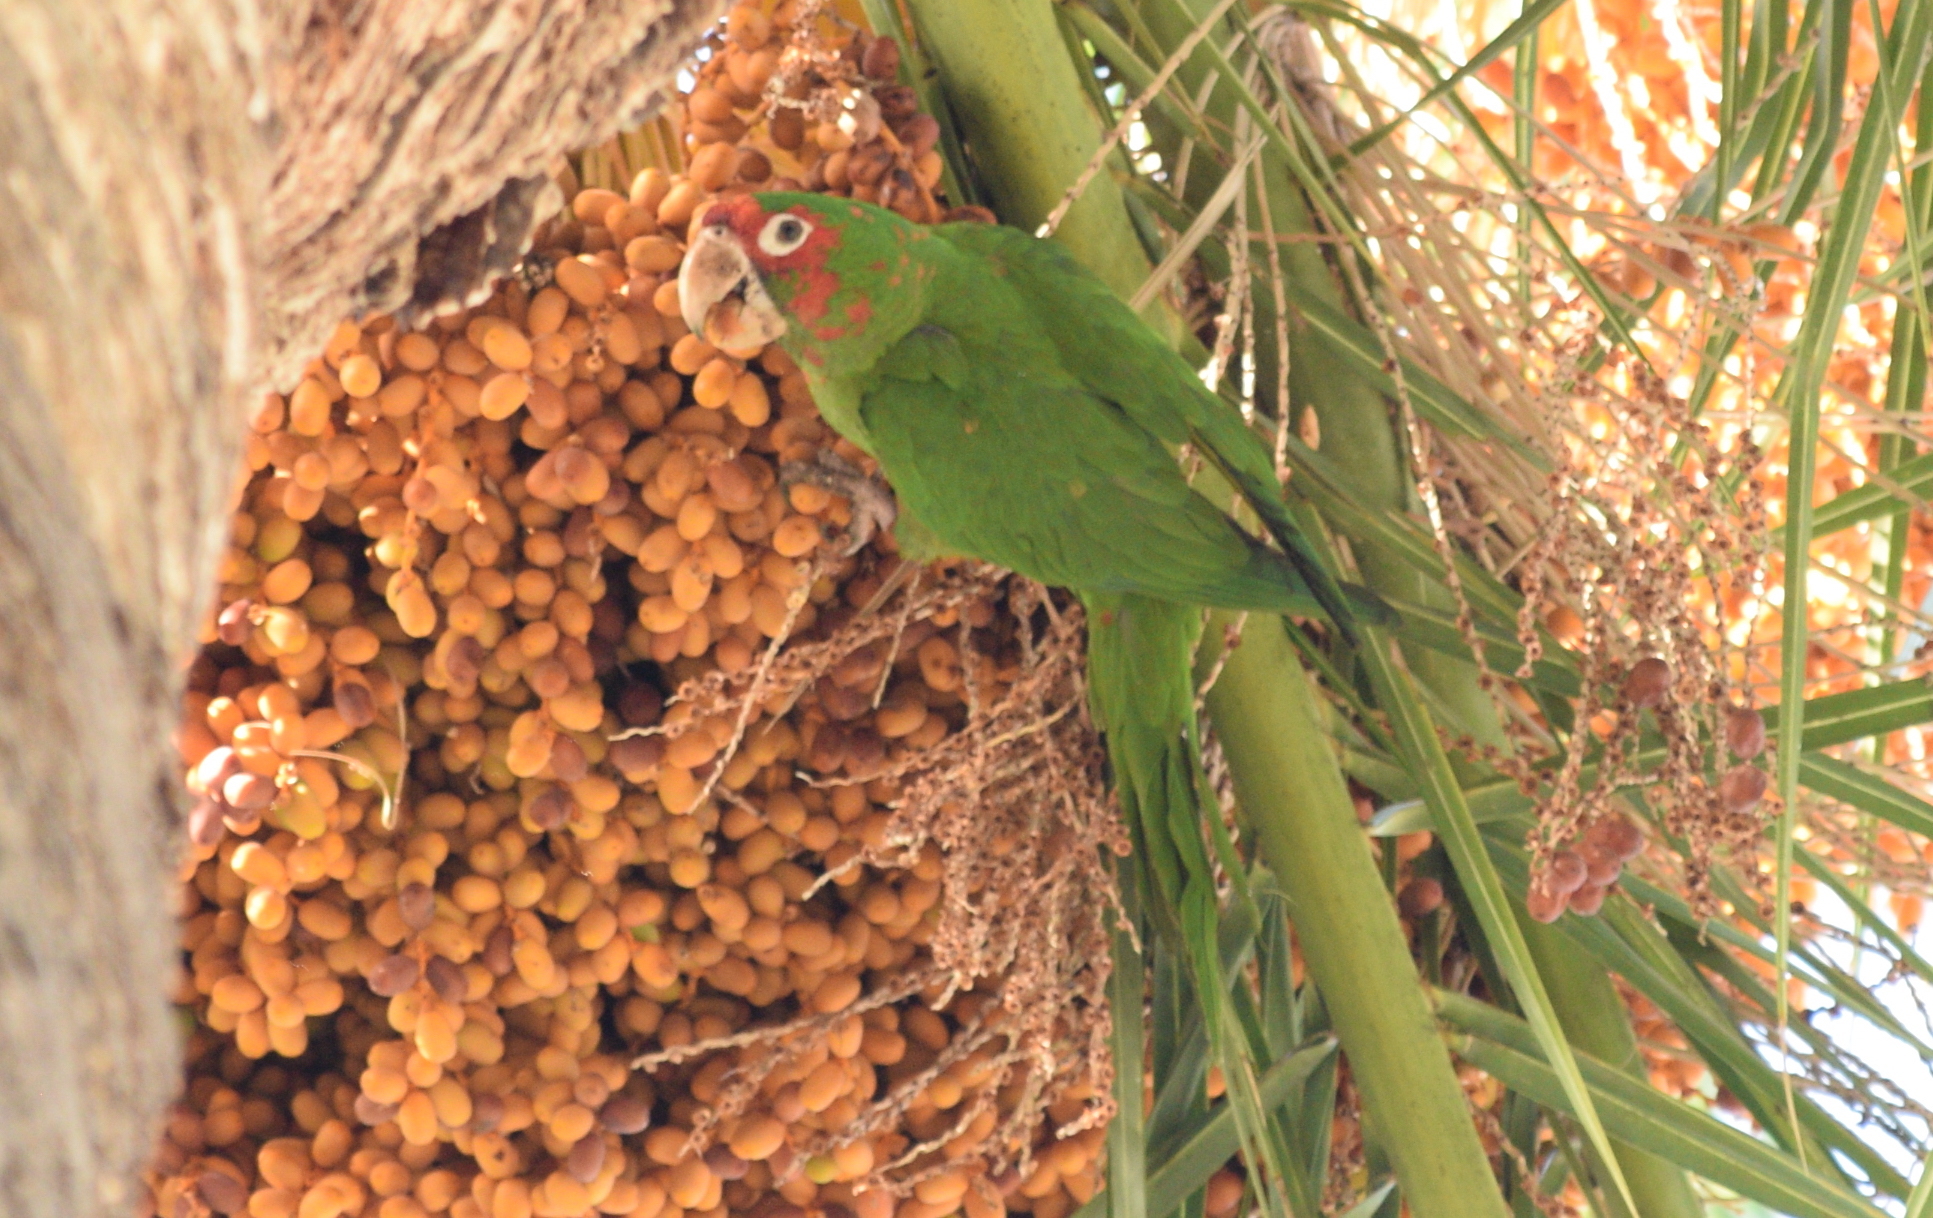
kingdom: Animalia
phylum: Chordata
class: Aves
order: Psittaciformes
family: Psittacidae
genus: Aratinga
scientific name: Aratinga mitrata
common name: Mitred parakeet
